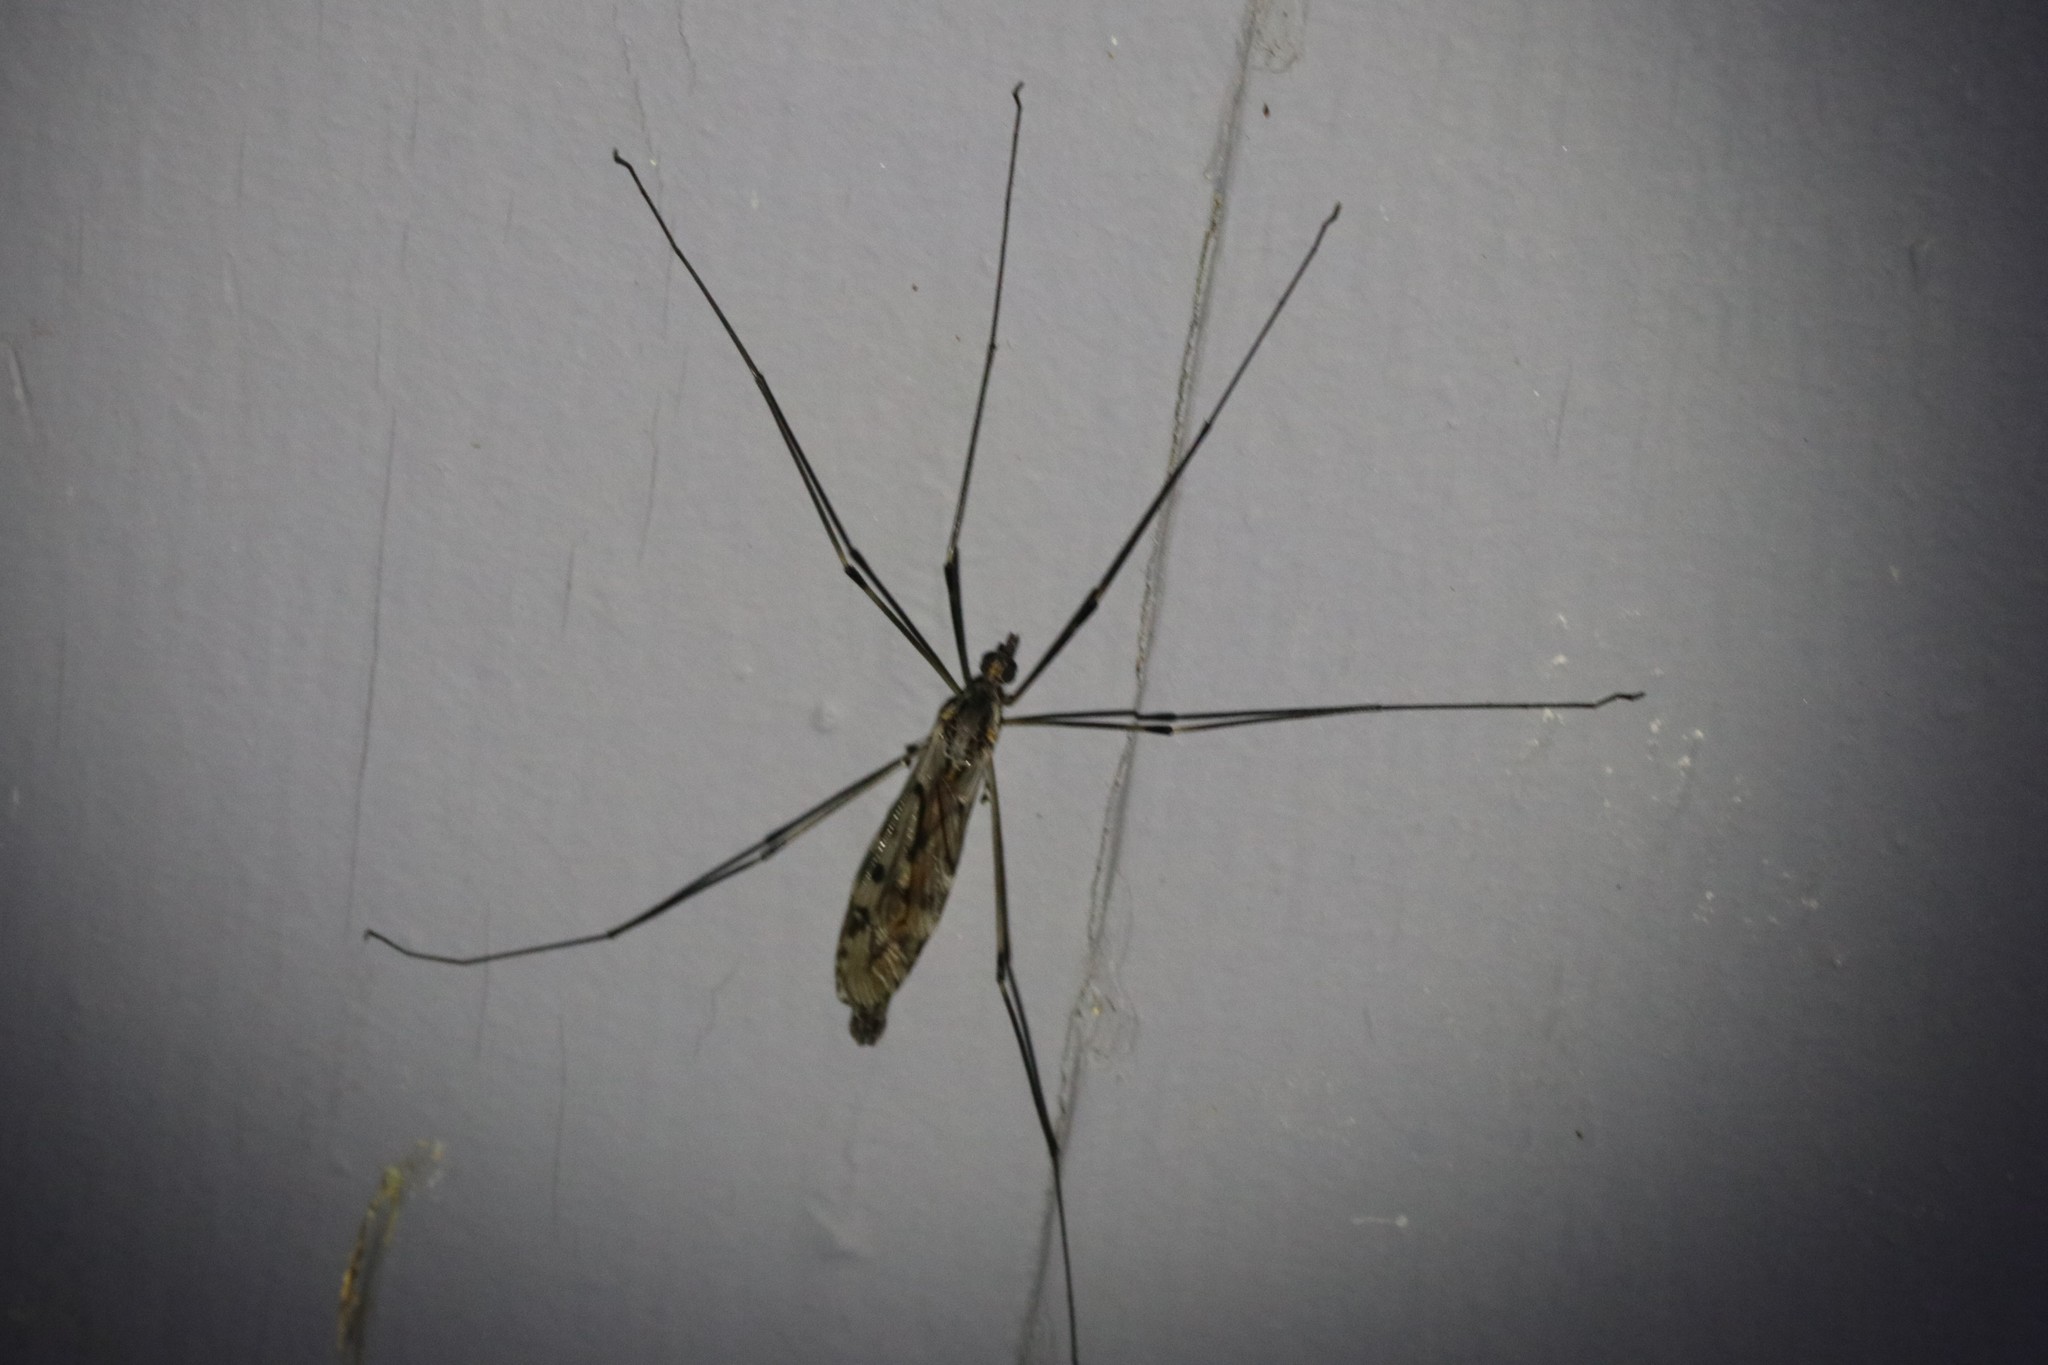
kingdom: Animalia
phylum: Arthropoda
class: Insecta
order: Diptera
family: Tipulidae
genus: Tipula
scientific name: Tipula abdominalis
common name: Giant crane fly
